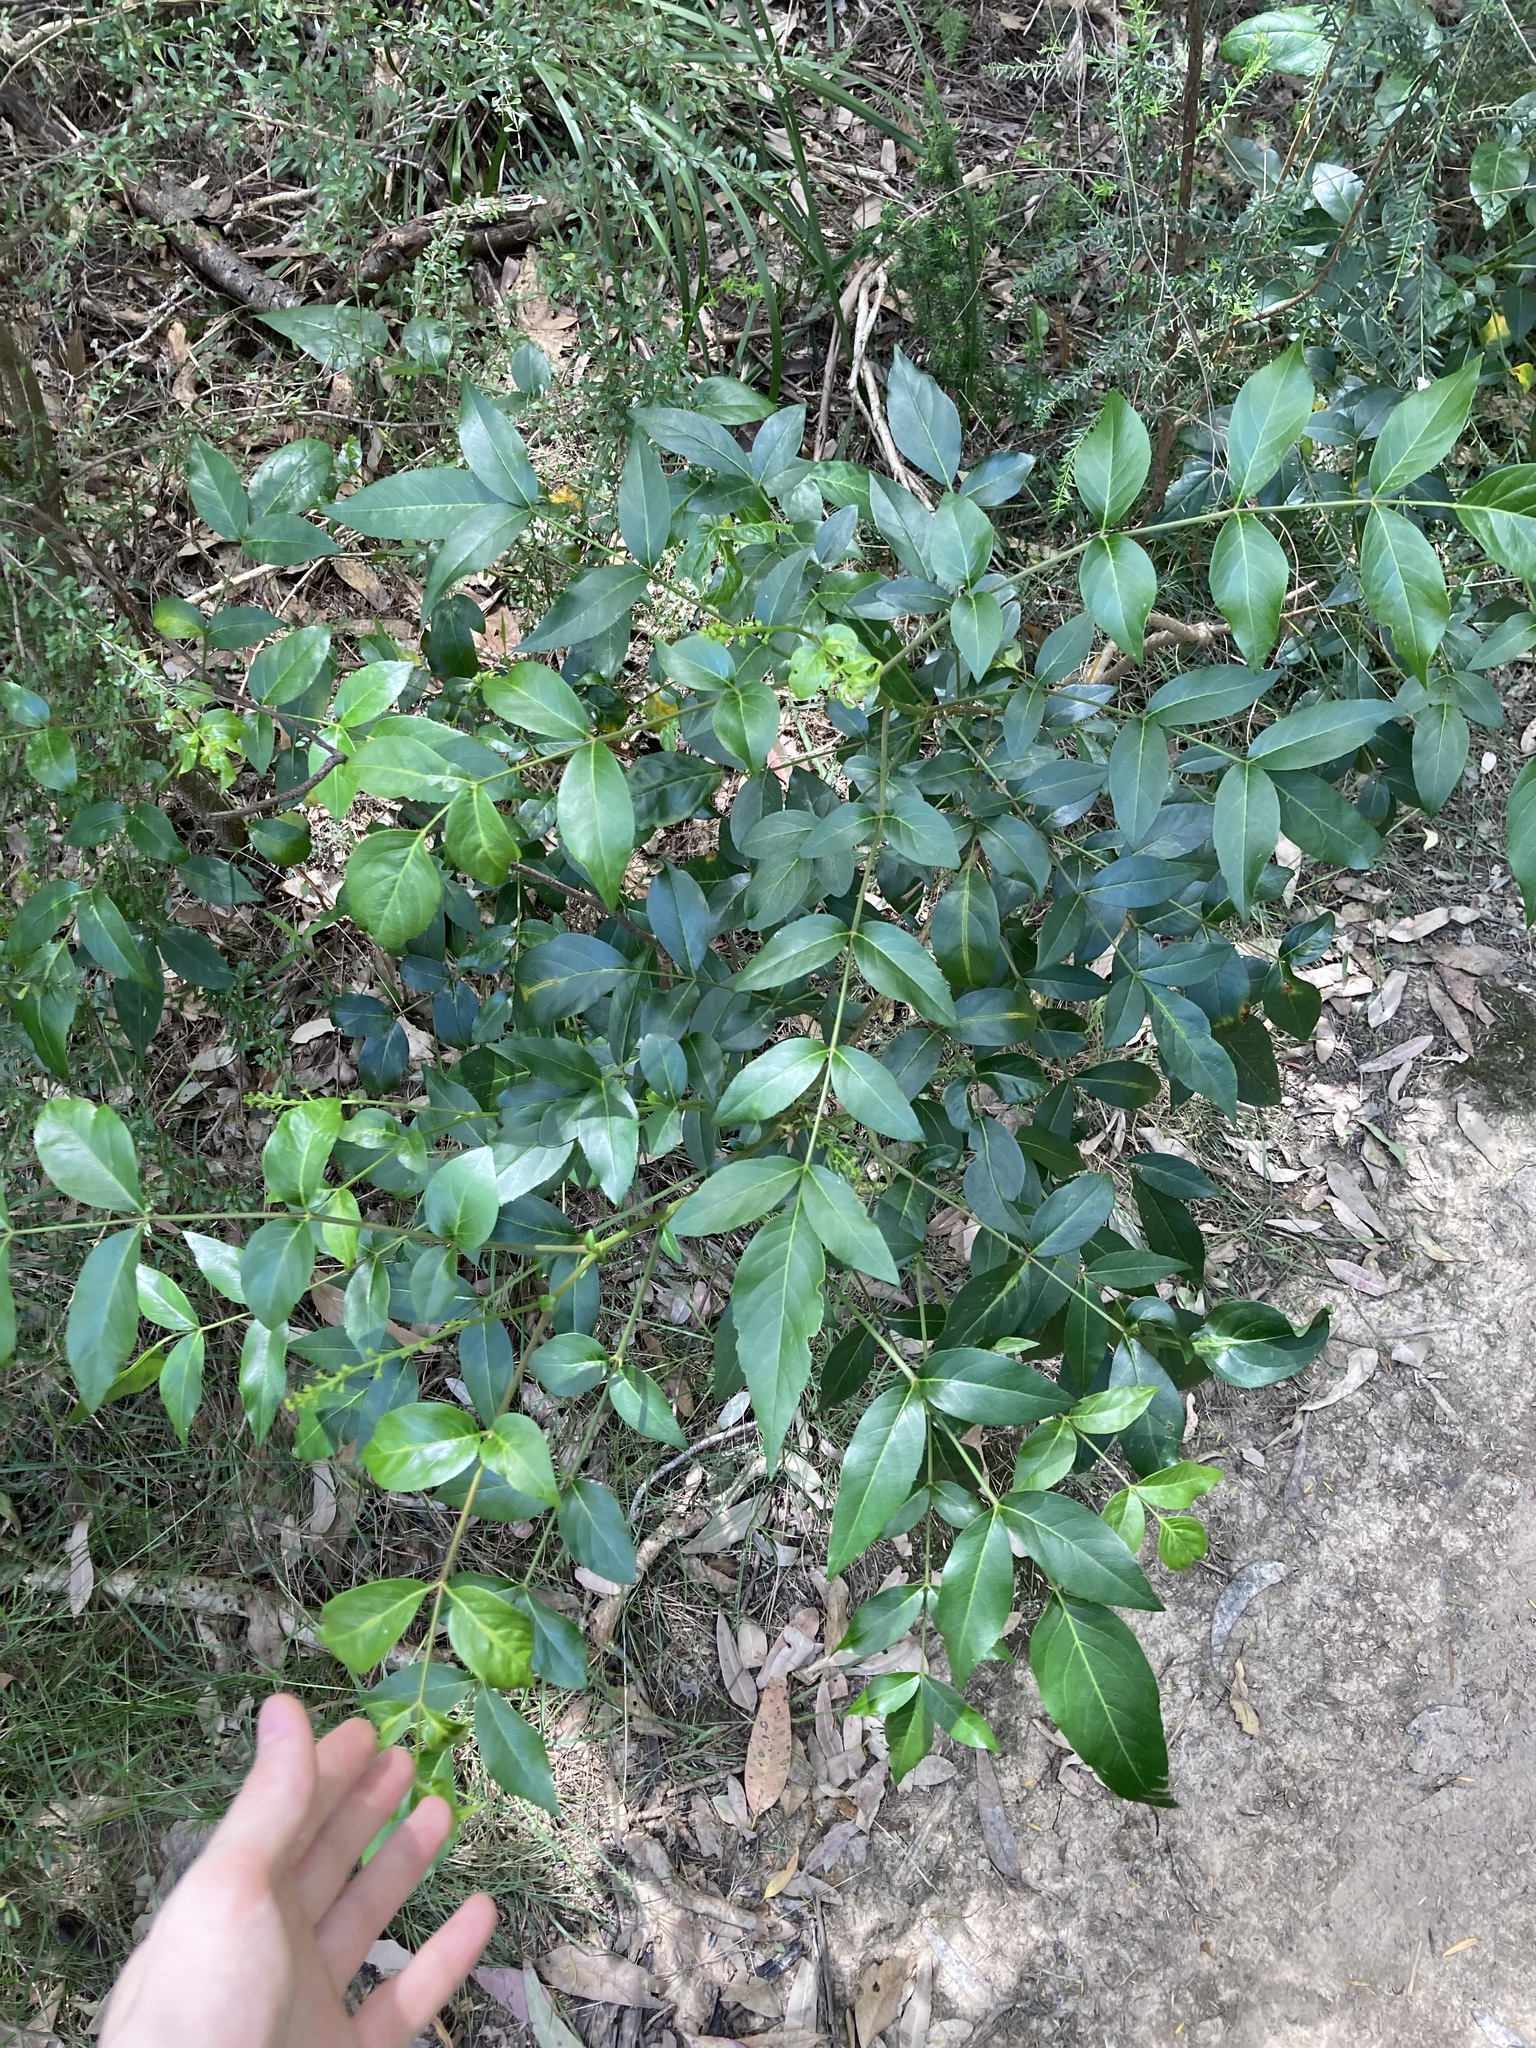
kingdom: Plantae
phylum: Tracheophyta
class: Magnoliopsida
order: Apiales
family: Araliaceae
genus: Polyscias
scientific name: Polyscias sambucifolia
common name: Elderberry-ash
